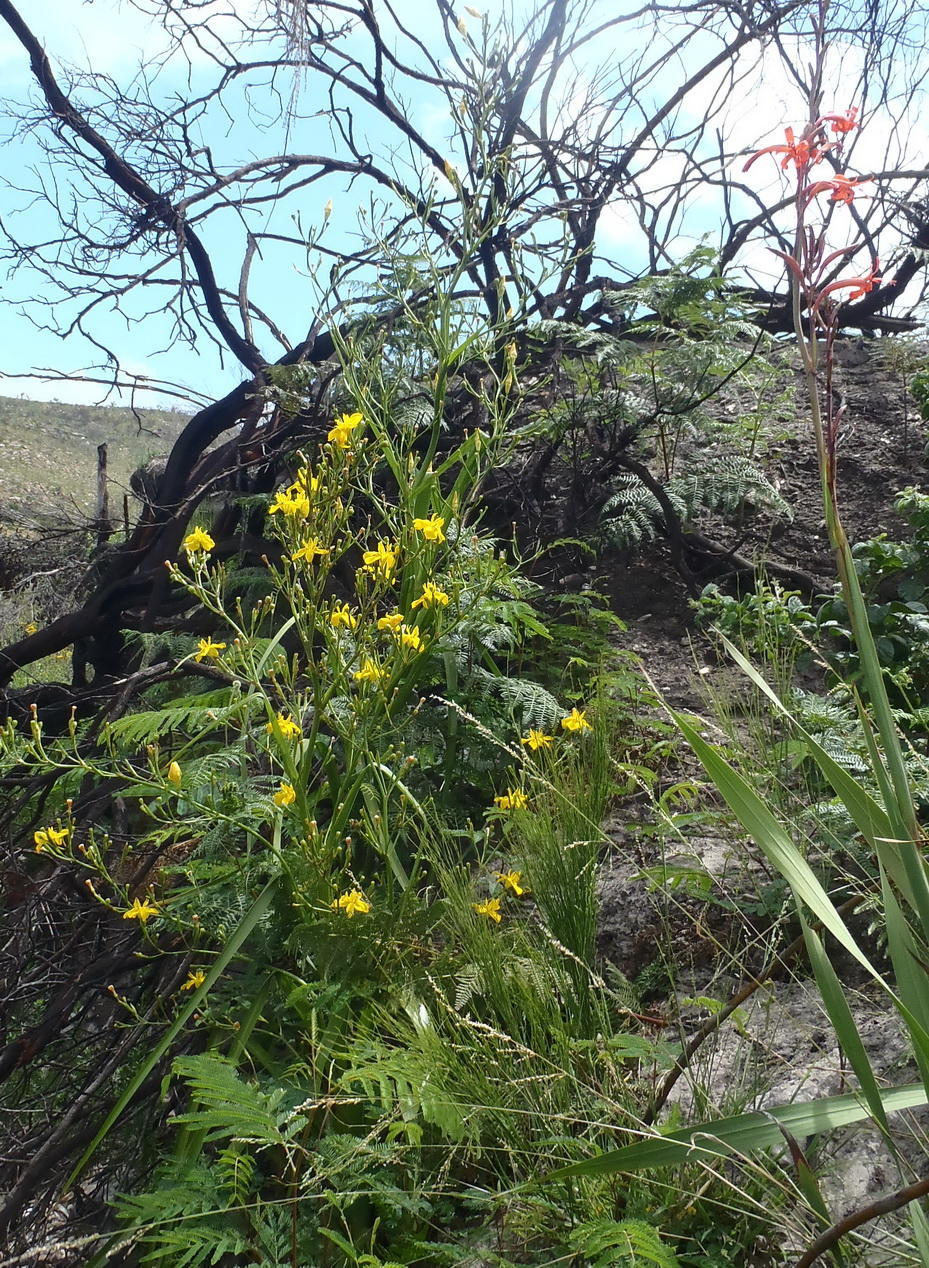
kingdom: Plantae
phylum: Tracheophyta
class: Liliopsida
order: Asparagales
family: Iridaceae
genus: Moraea
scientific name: Moraea ramosissima
